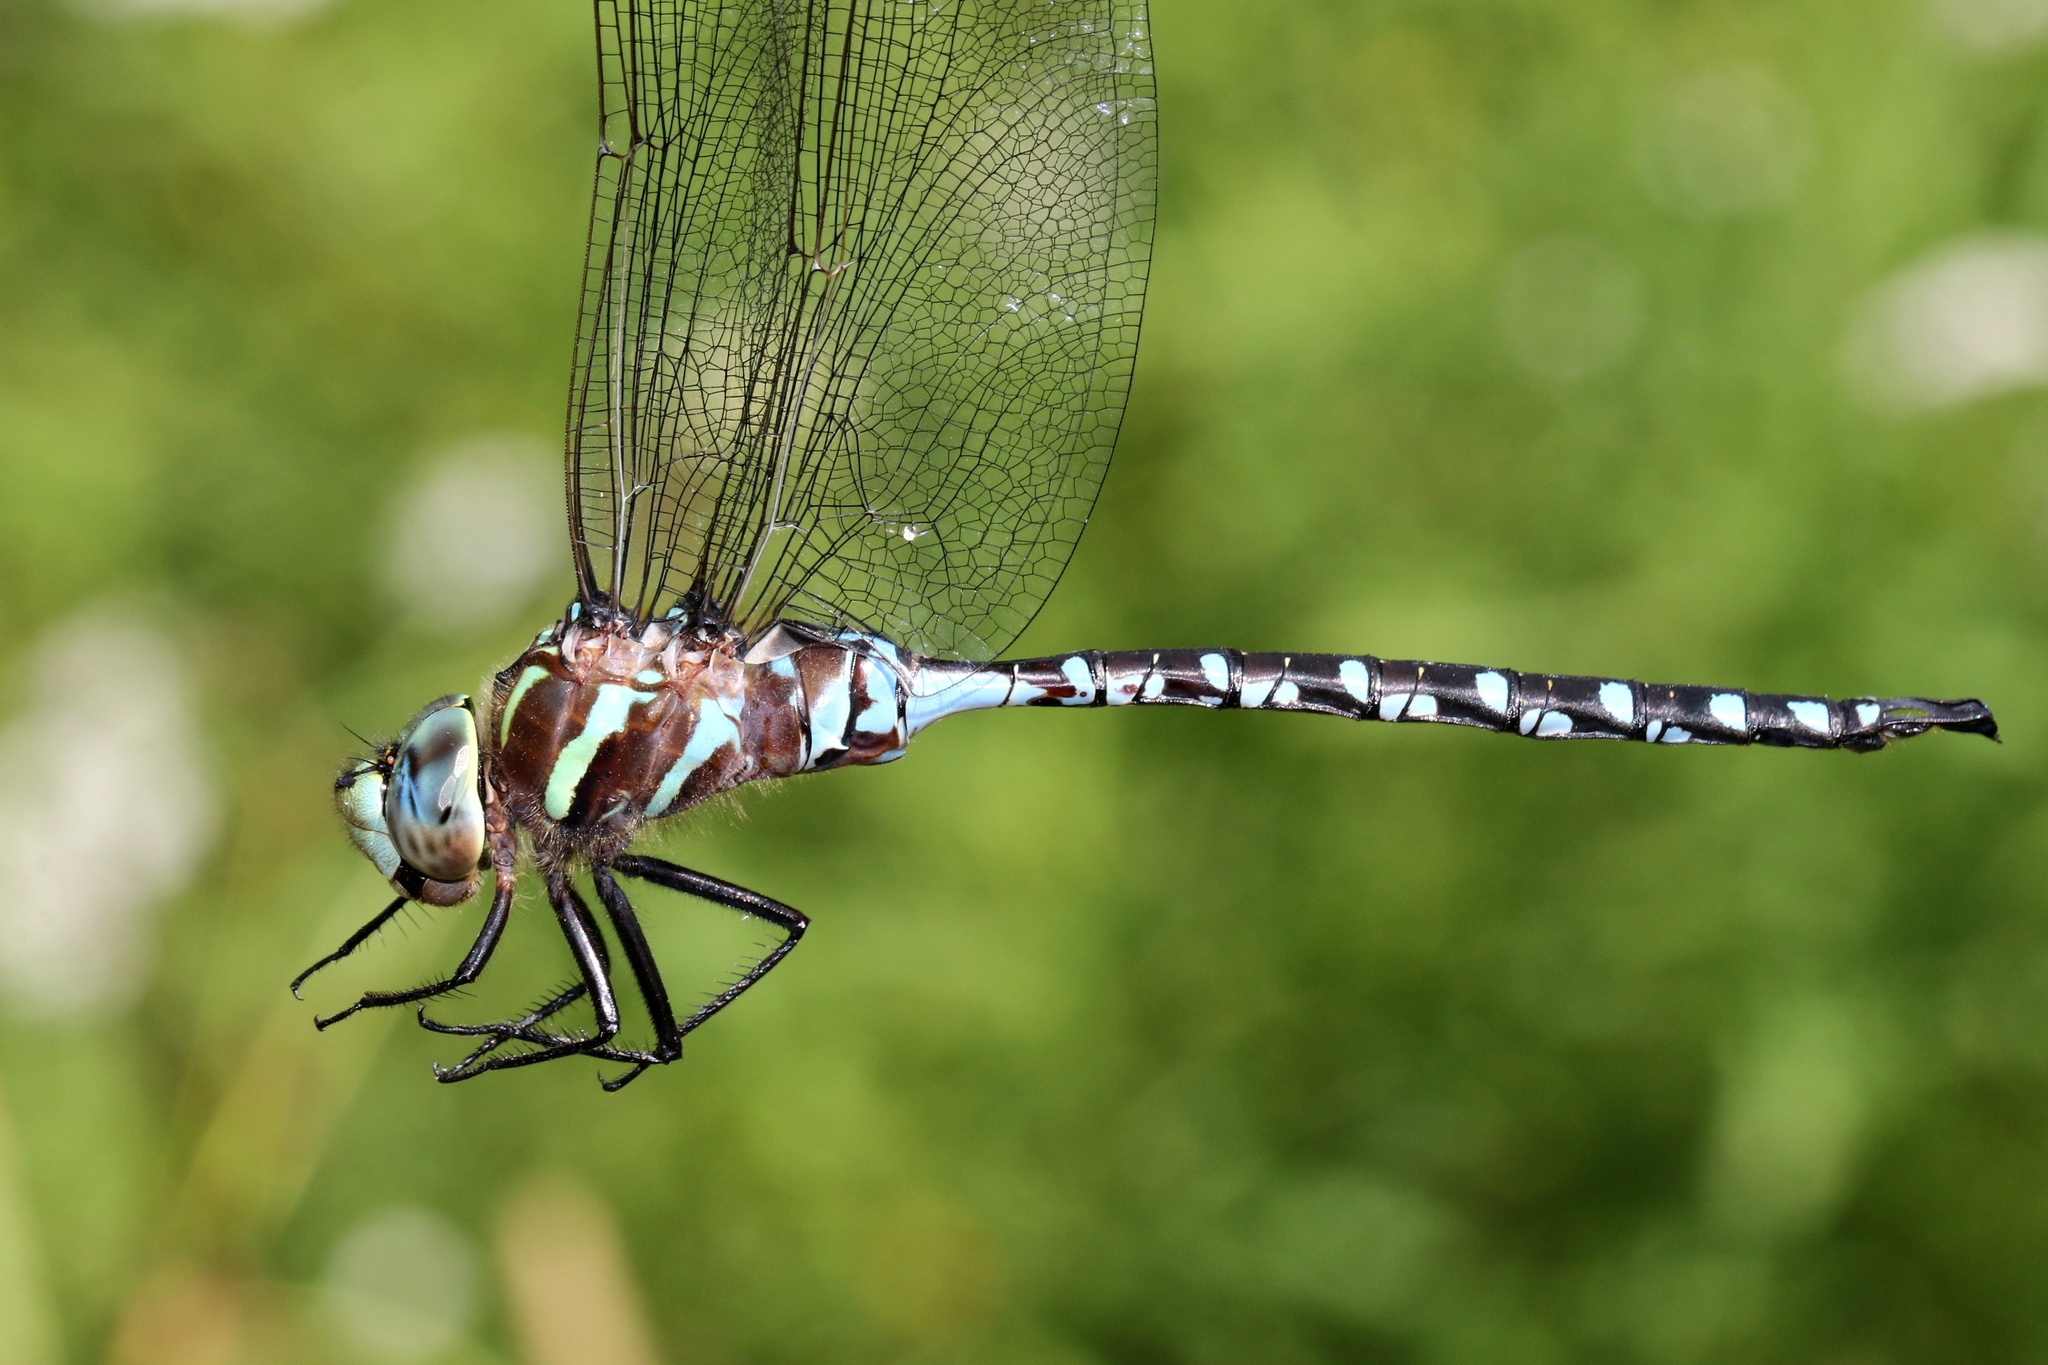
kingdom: Animalia
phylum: Arthropoda
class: Insecta
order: Odonata
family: Aeshnidae
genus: Aeshna
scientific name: Aeshna constricta
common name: Lance-tipped darner
